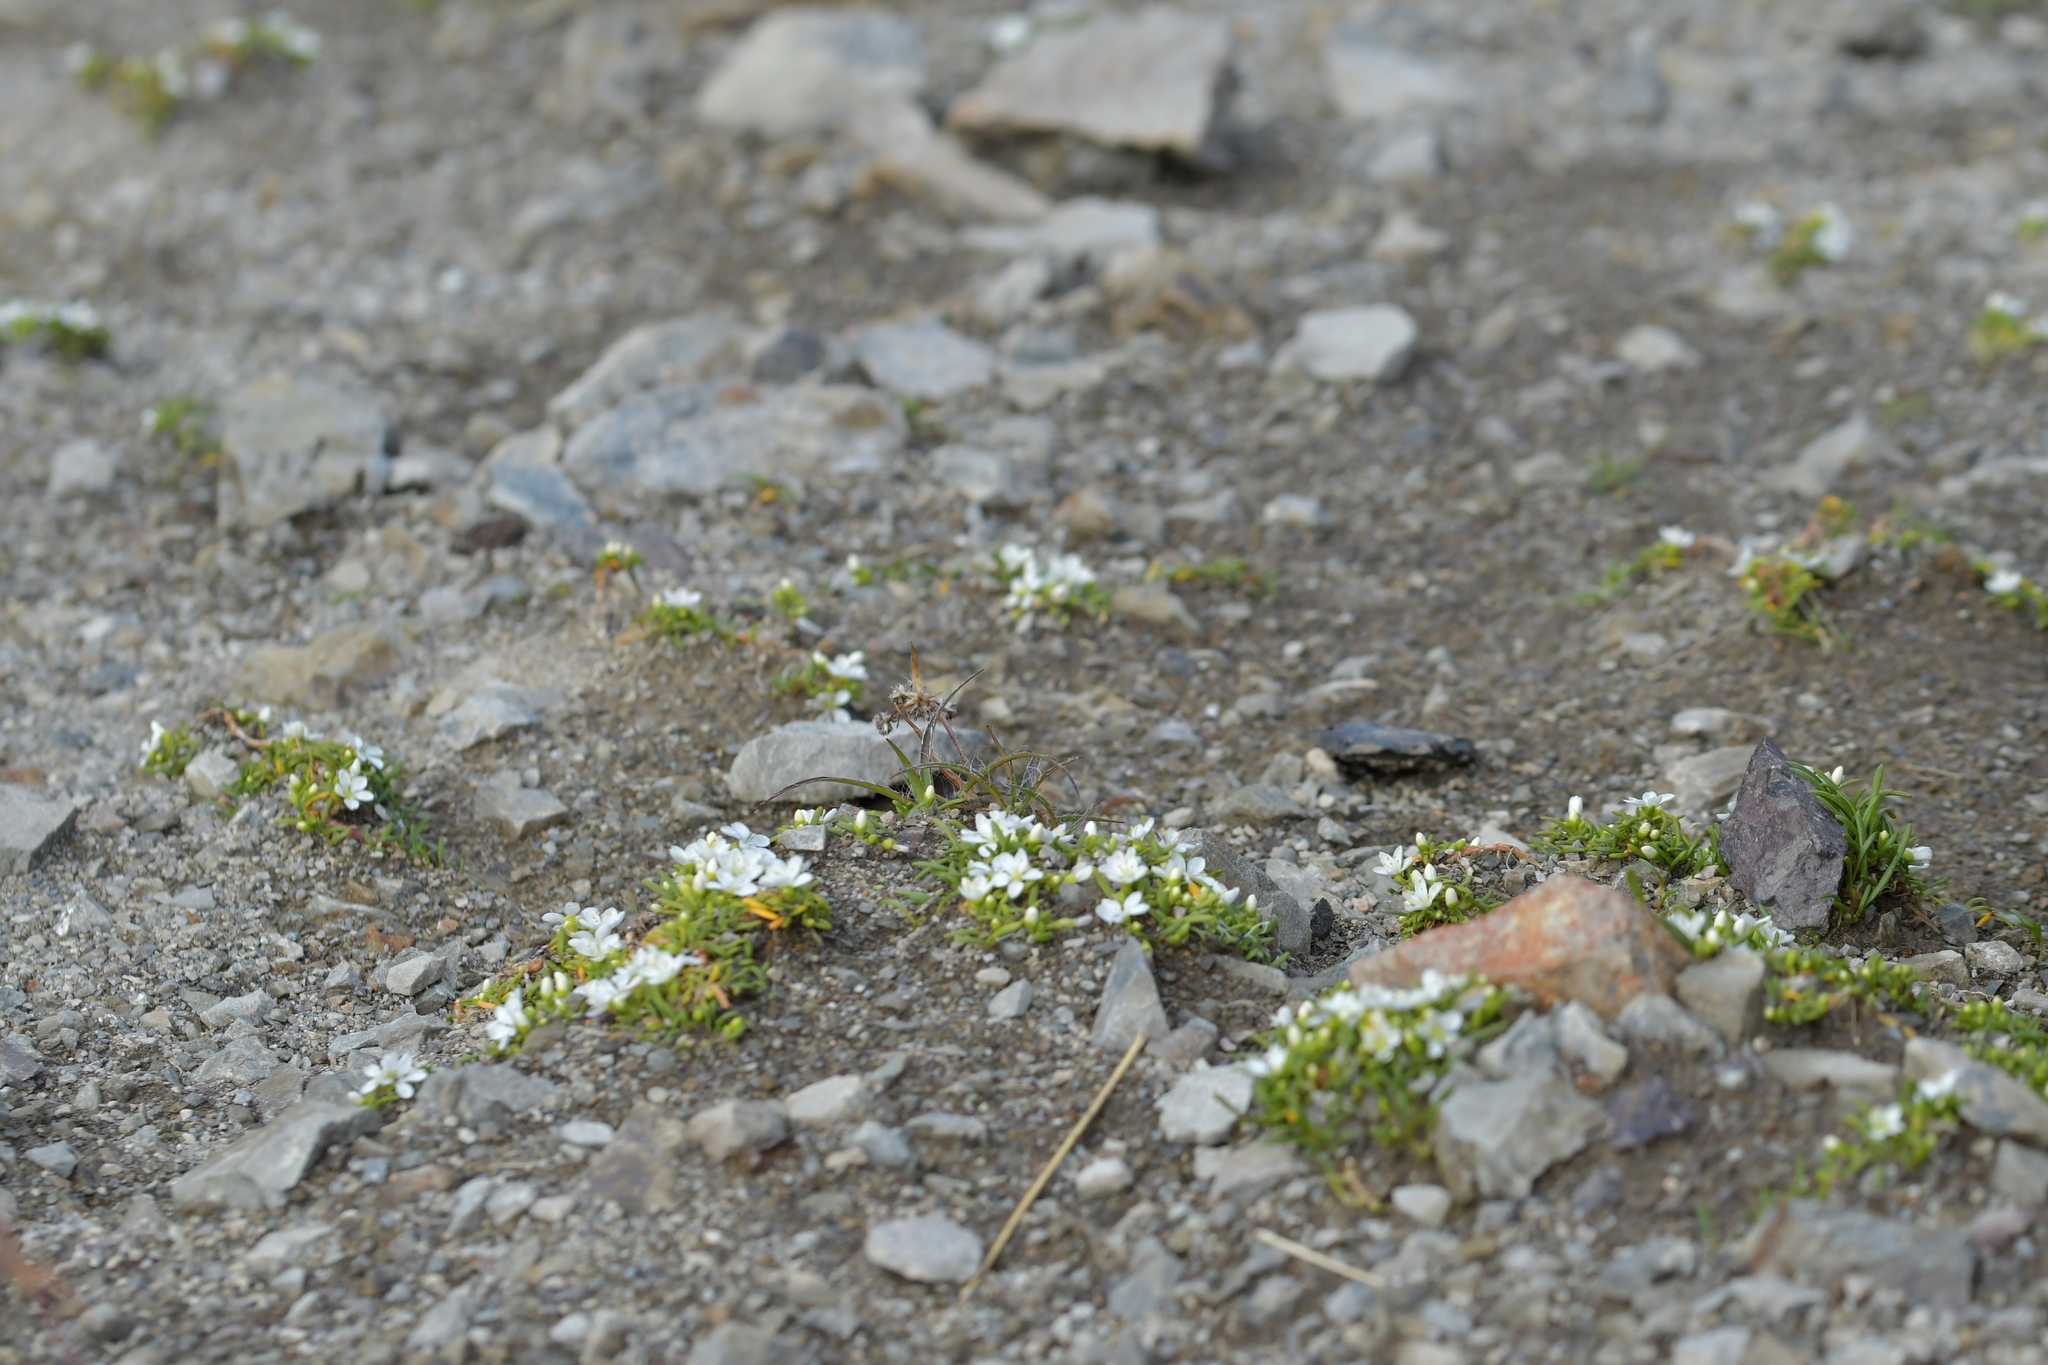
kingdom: Plantae
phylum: Tracheophyta
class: Magnoliopsida
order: Caryophyllales
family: Montiaceae
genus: Montia
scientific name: Montia calycina
